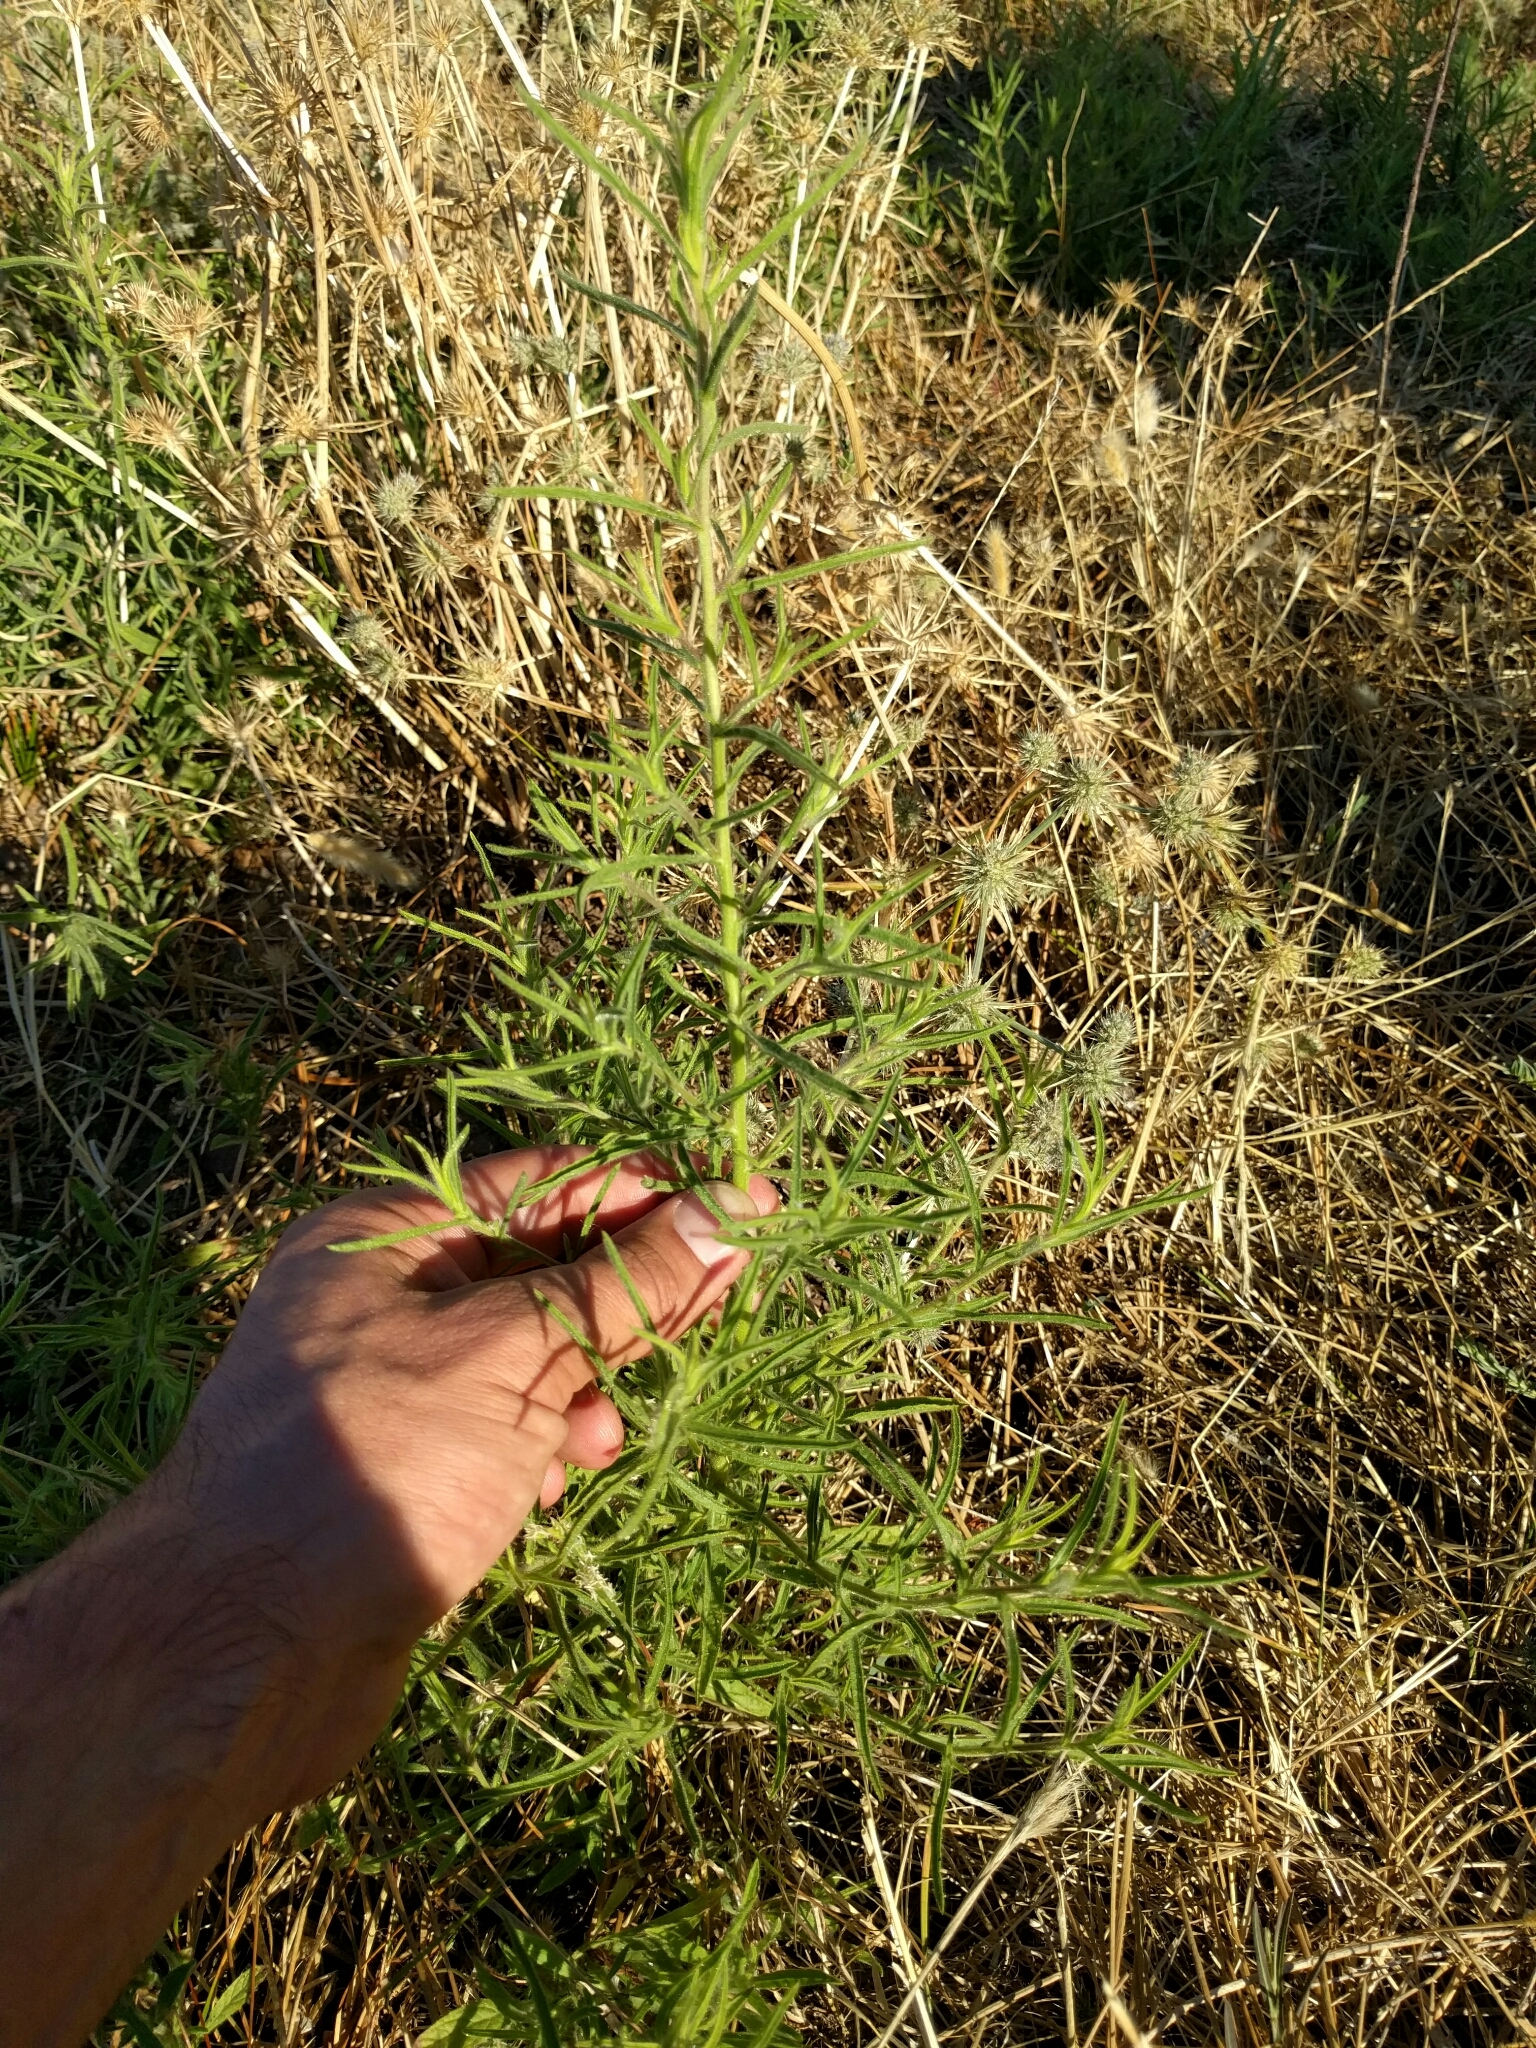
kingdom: Plantae
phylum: Tracheophyta
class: Magnoliopsida
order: Asterales
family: Asteraceae
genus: Dittrichia
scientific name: Dittrichia graveolens
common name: Stinking fleabane
